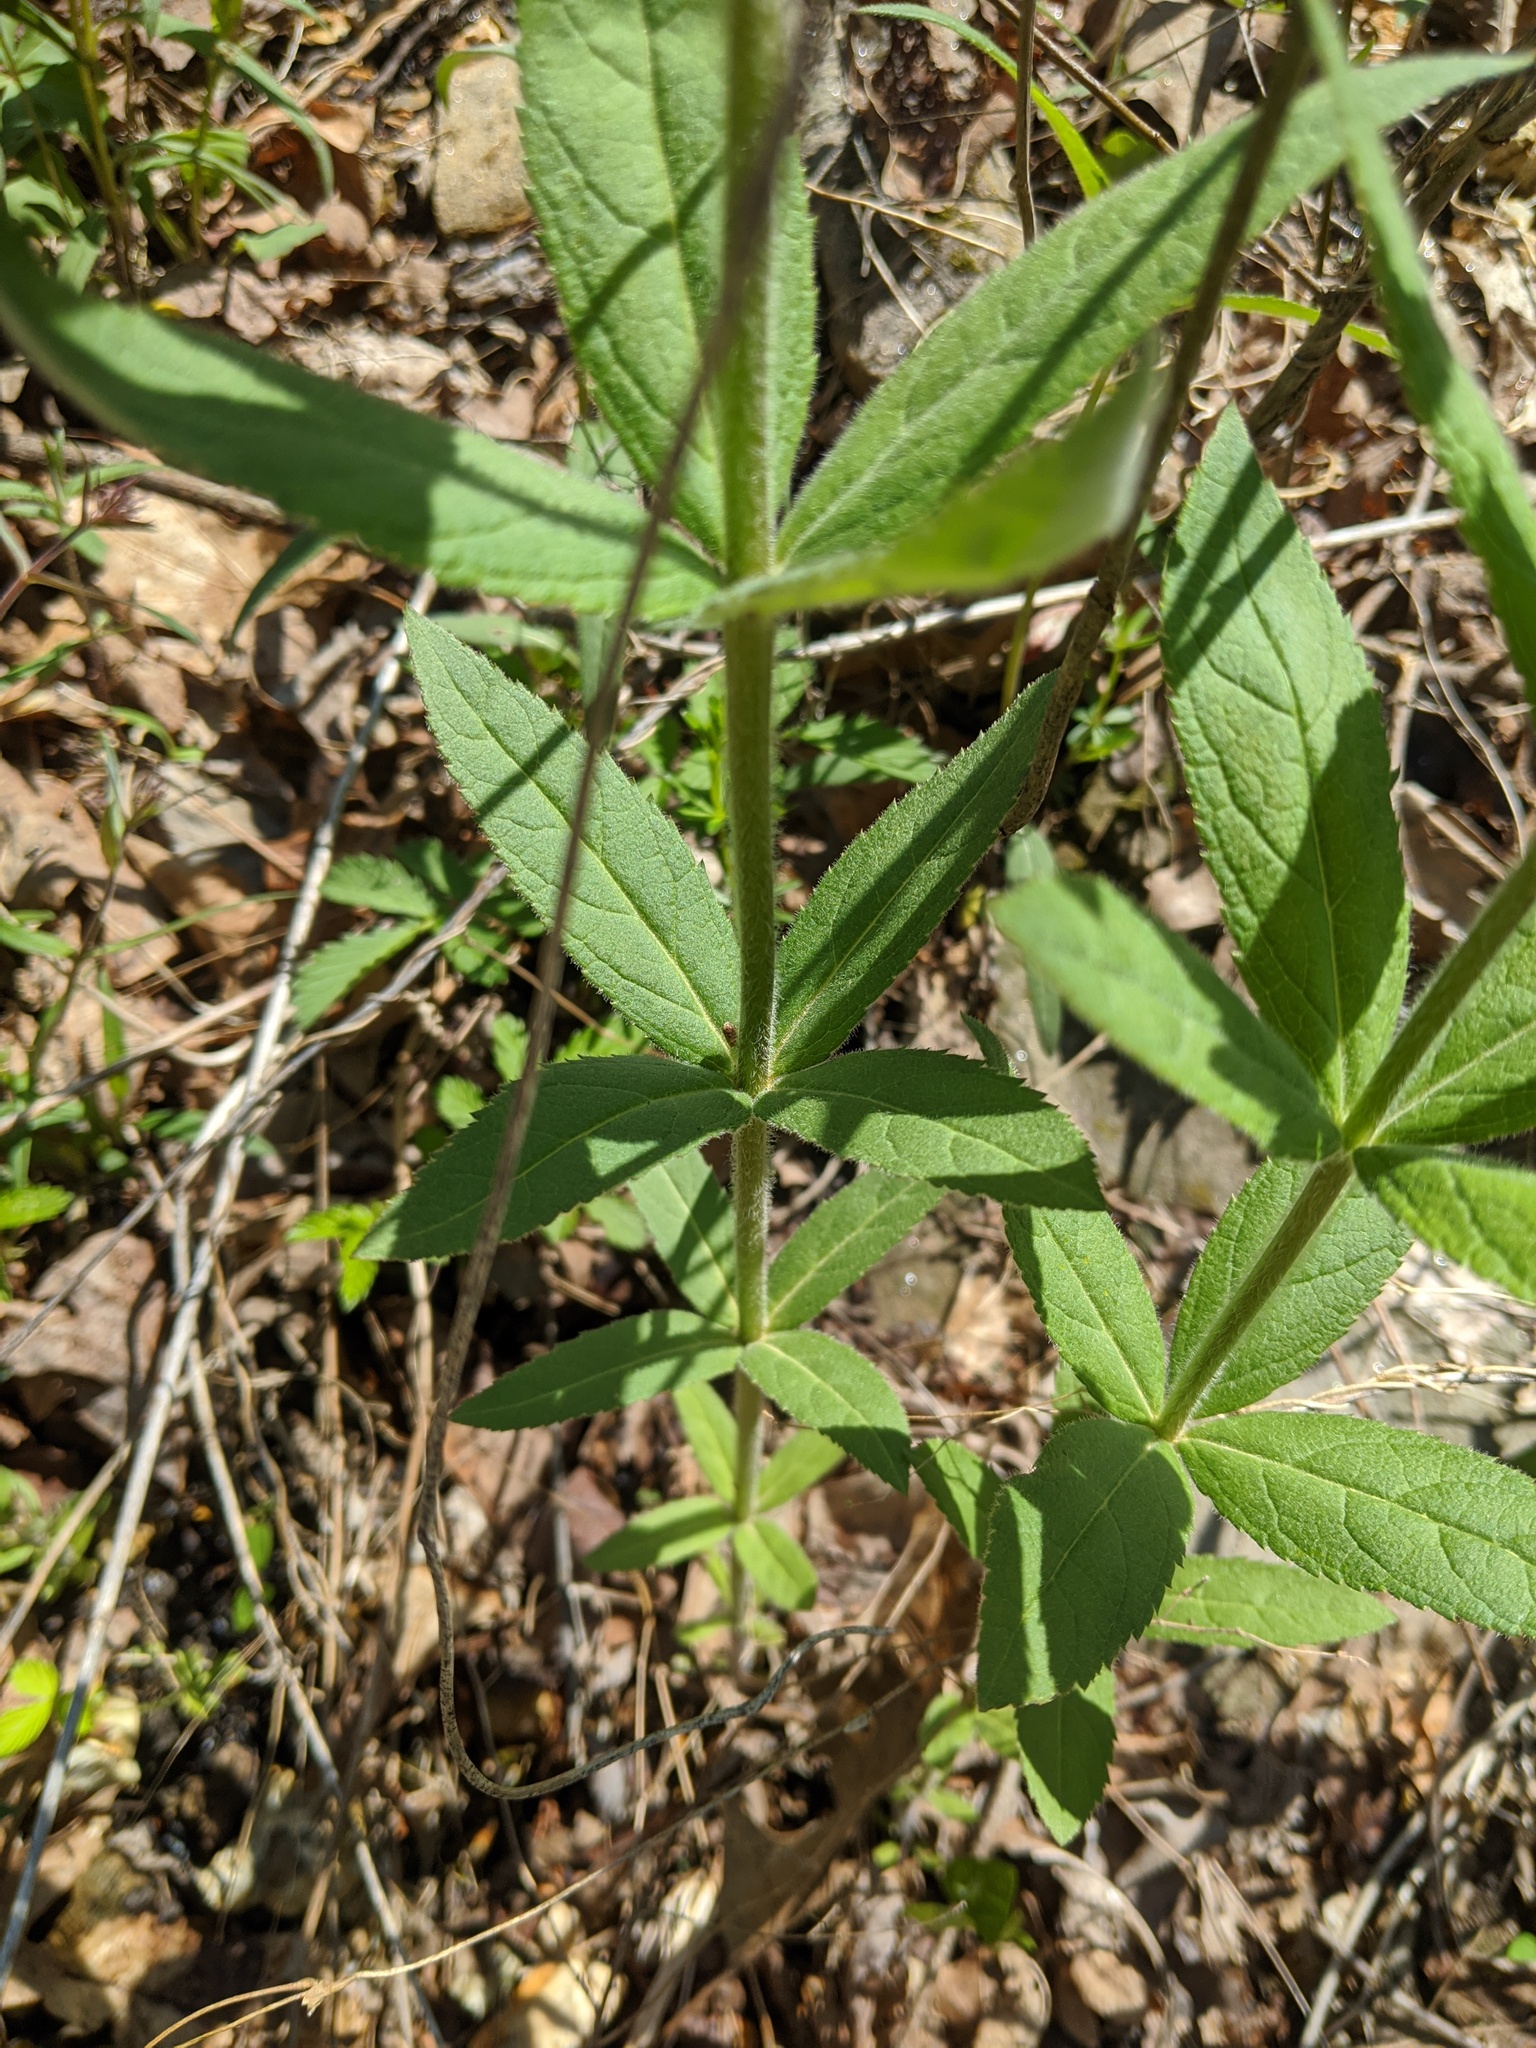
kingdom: Plantae
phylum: Tracheophyta
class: Magnoliopsida
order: Lamiales
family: Plantaginaceae
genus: Veronicastrum
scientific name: Veronicastrum virginicum
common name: Blackroot
